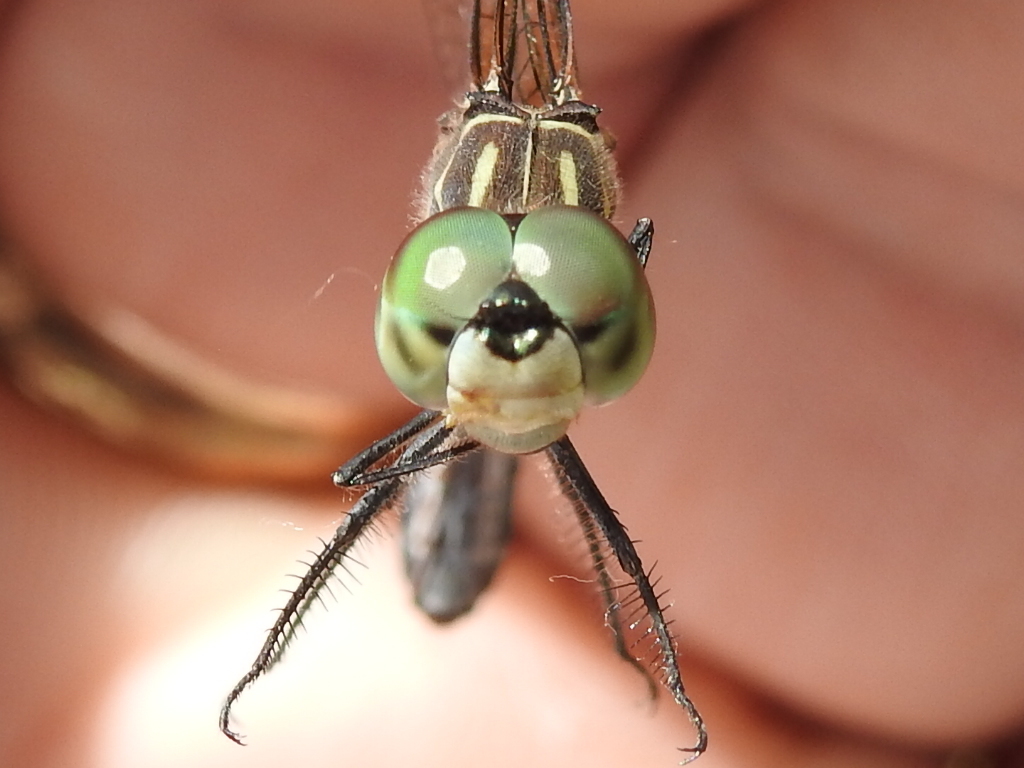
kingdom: Animalia
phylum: Arthropoda
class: Insecta
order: Odonata
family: Libellulidae
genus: Pachydiplax
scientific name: Pachydiplax longipennis
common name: Blue dasher
